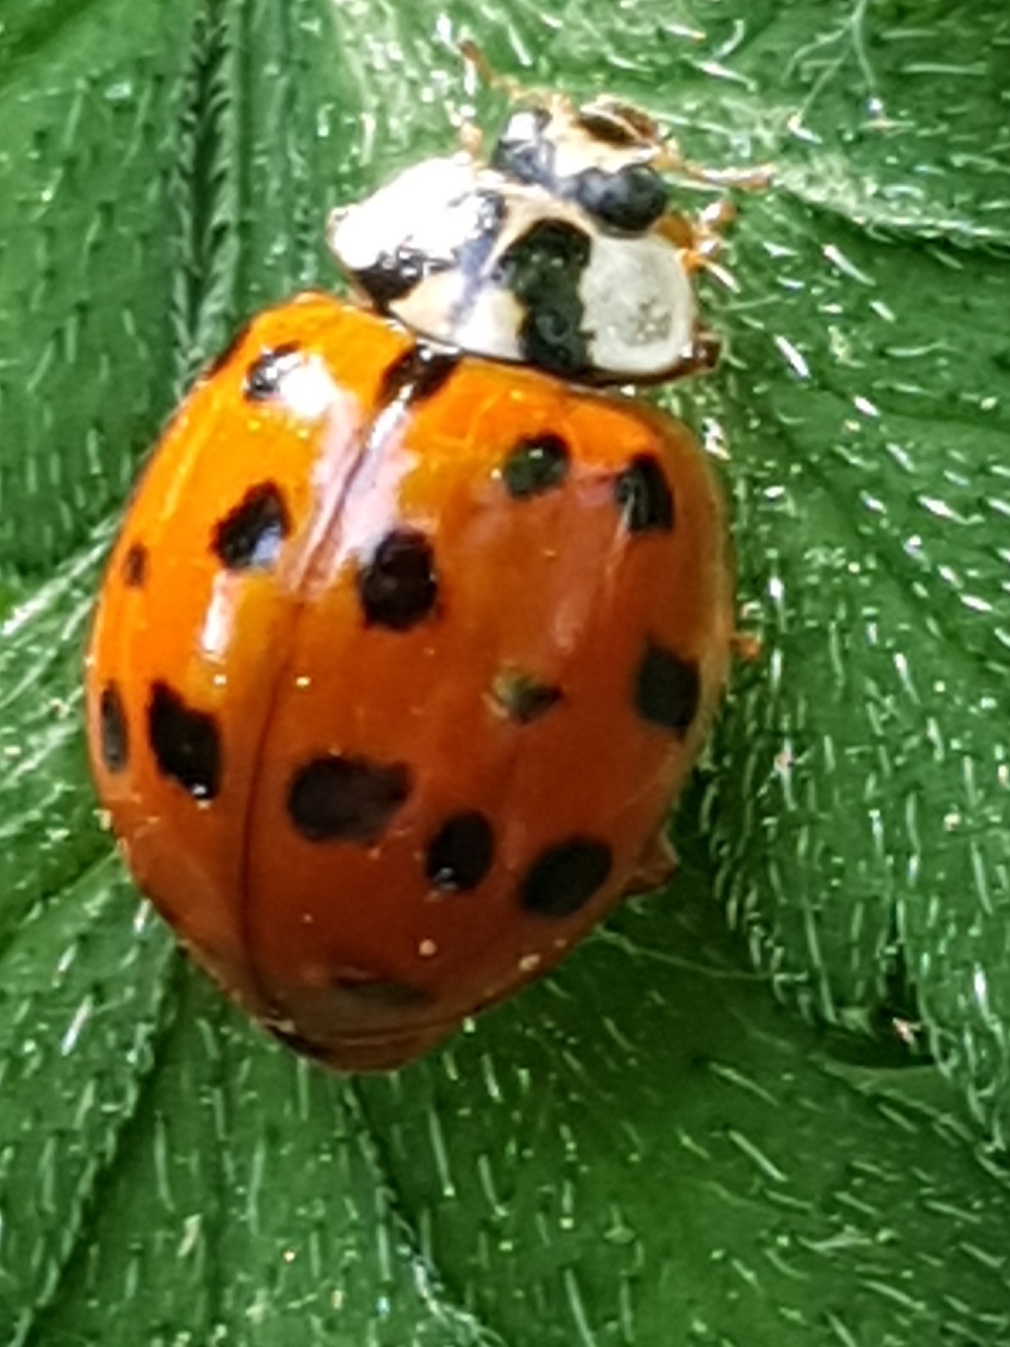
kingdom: Animalia
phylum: Arthropoda
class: Insecta
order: Coleoptera
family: Coccinellidae
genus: Harmonia
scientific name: Harmonia axyridis
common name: Harlequin ladybird
